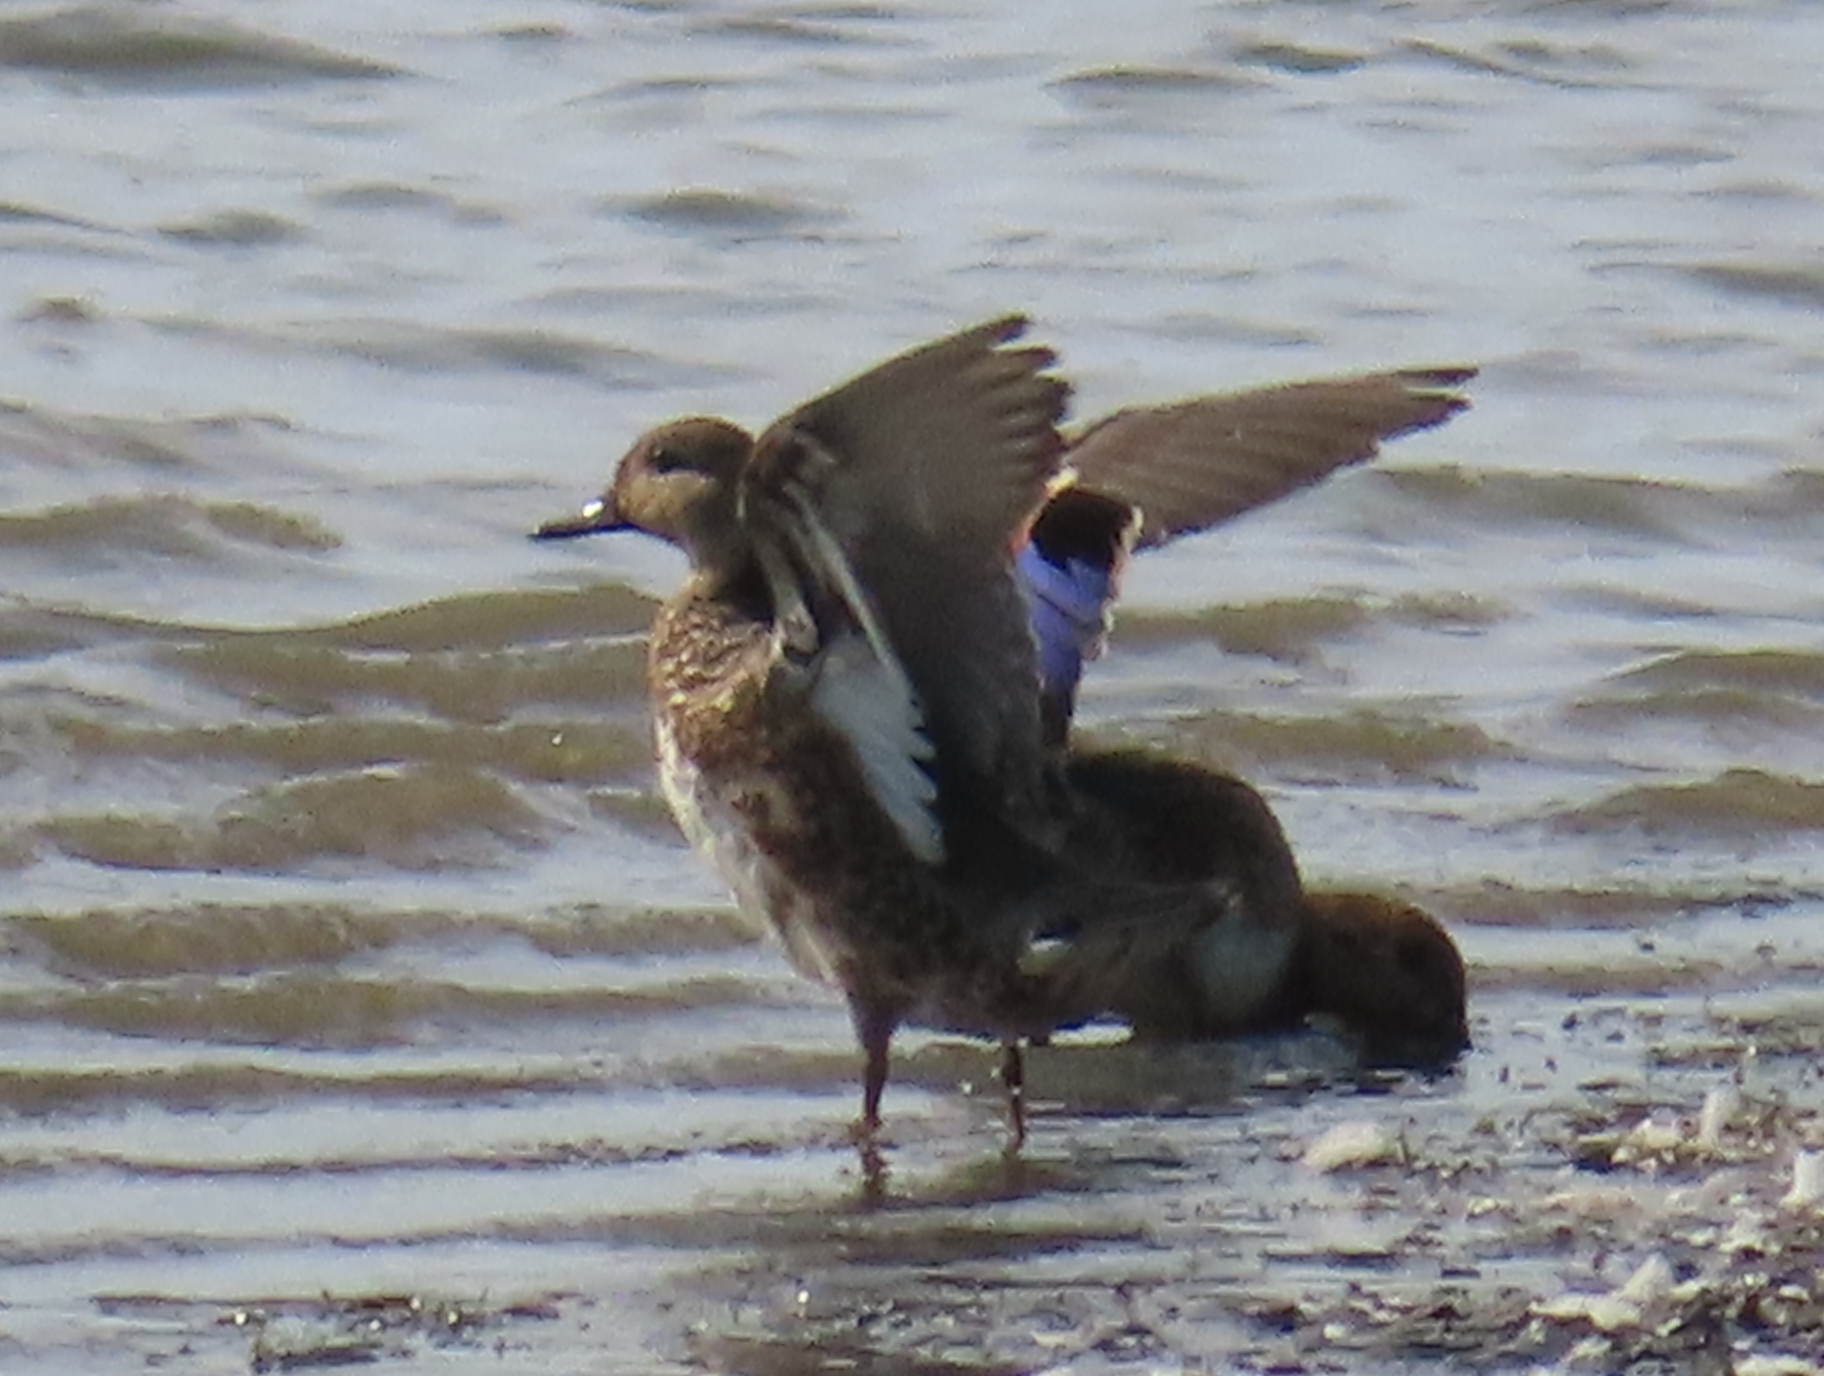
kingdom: Animalia
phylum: Chordata
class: Aves
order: Anseriformes
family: Anatidae
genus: Anas
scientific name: Anas crecca
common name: Eurasian teal
